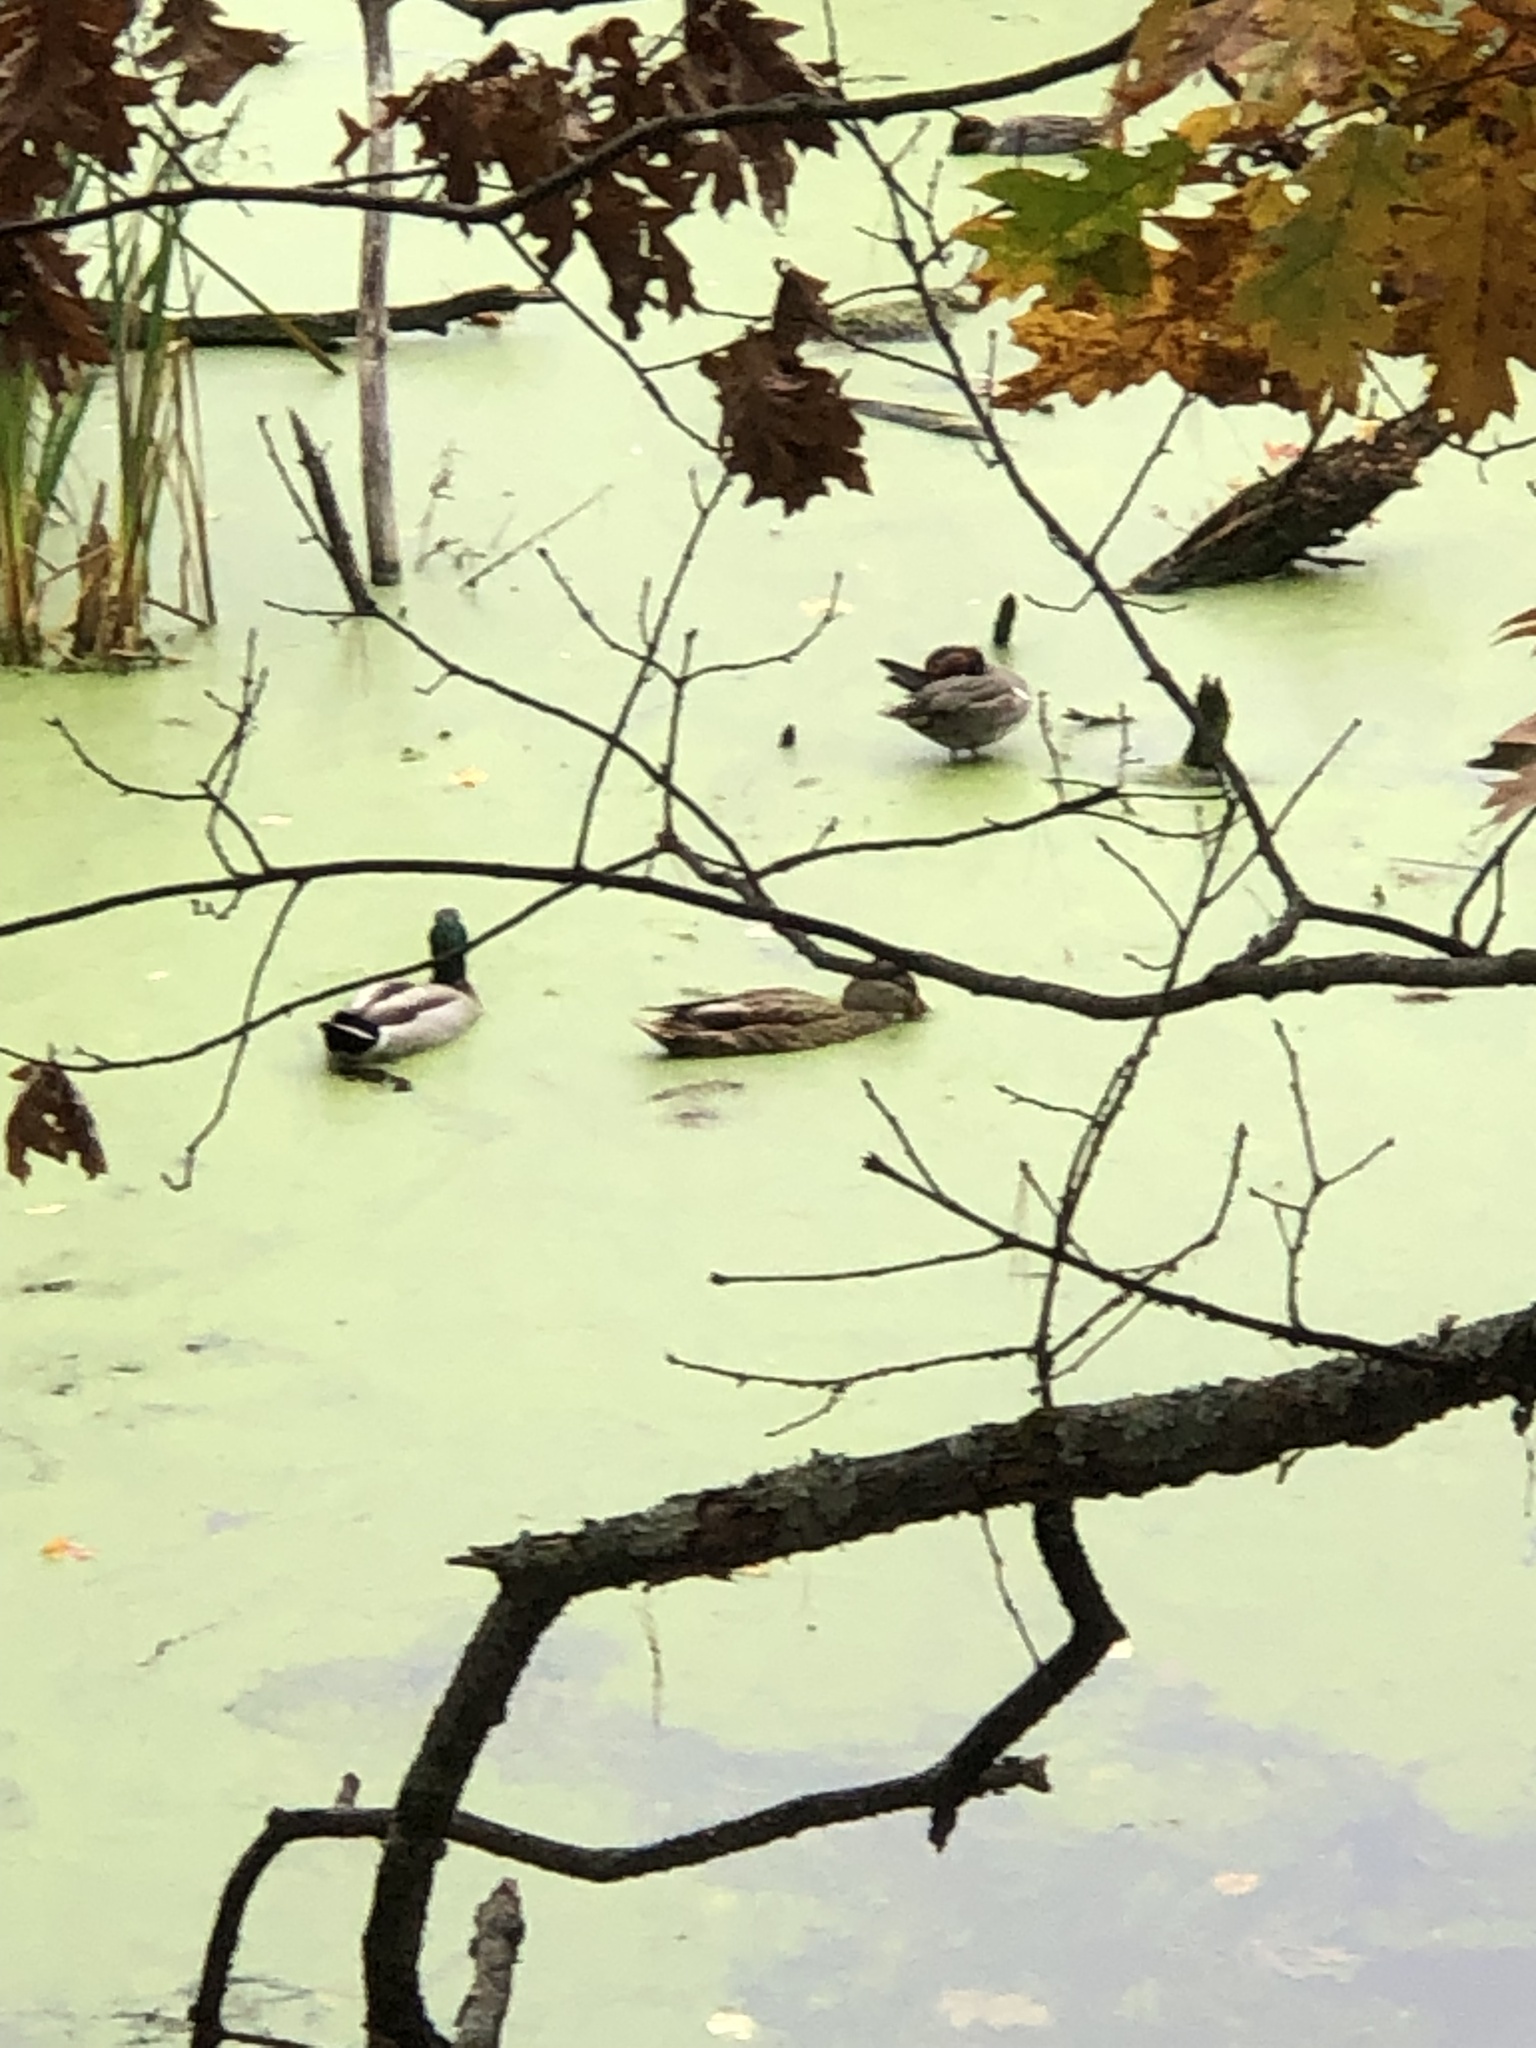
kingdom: Animalia
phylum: Chordata
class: Aves
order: Anseriformes
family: Anatidae
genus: Anas
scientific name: Anas platyrhynchos
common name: Mallard
